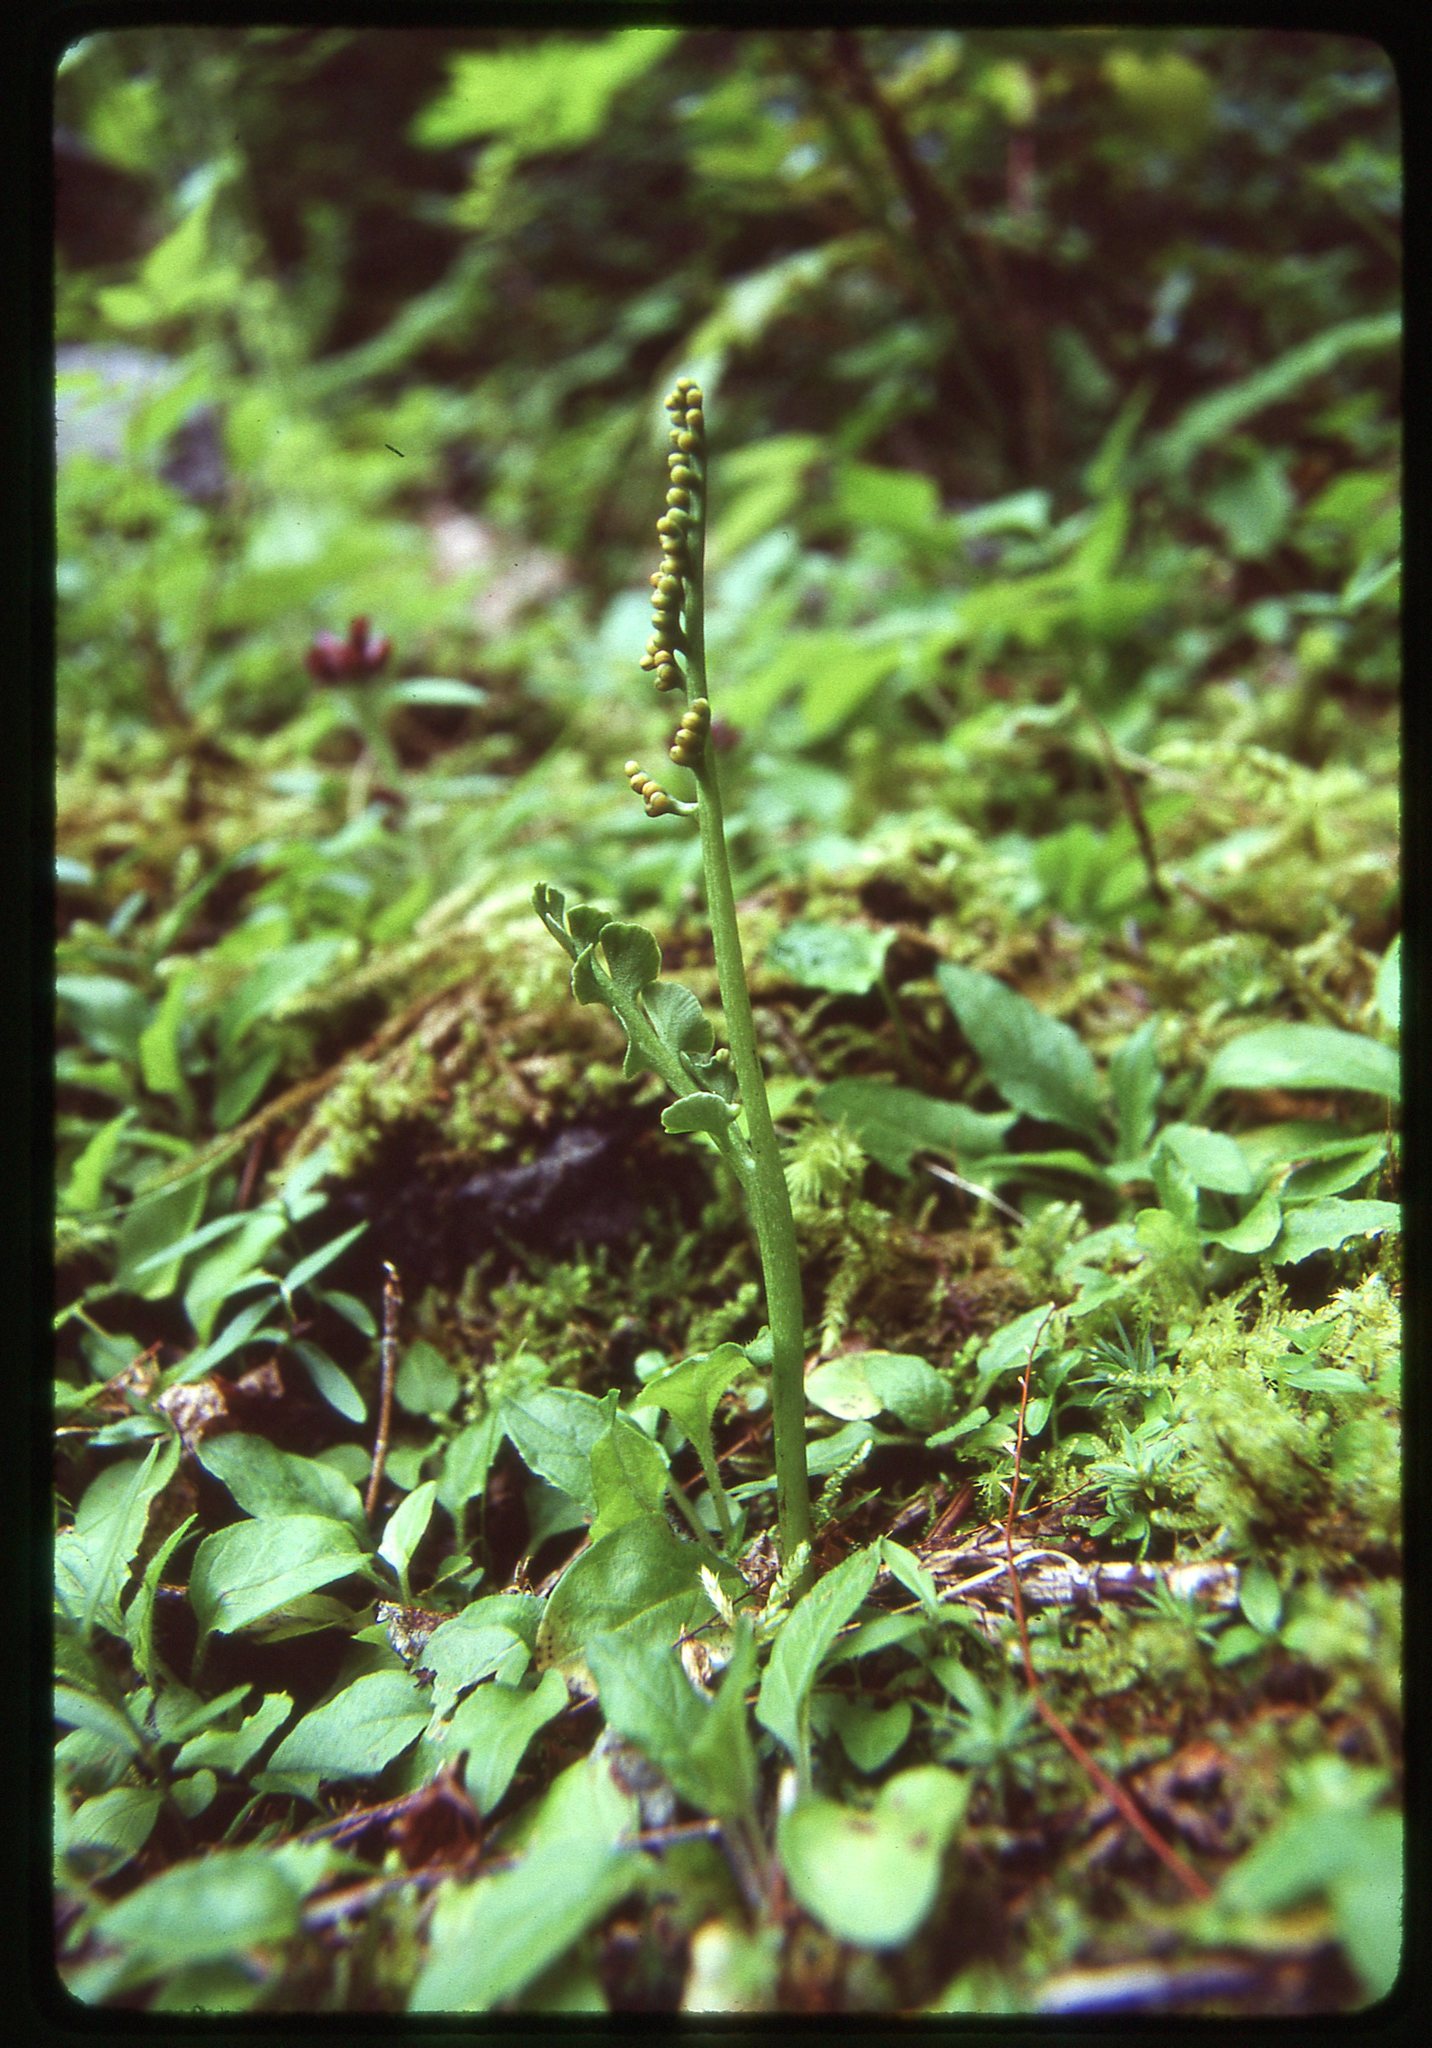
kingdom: Plantae
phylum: Tracheophyta
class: Polypodiopsida
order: Ophioglossales
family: Ophioglossaceae
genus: Botrychium
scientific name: Botrychium minganense
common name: Mingan grapefern
